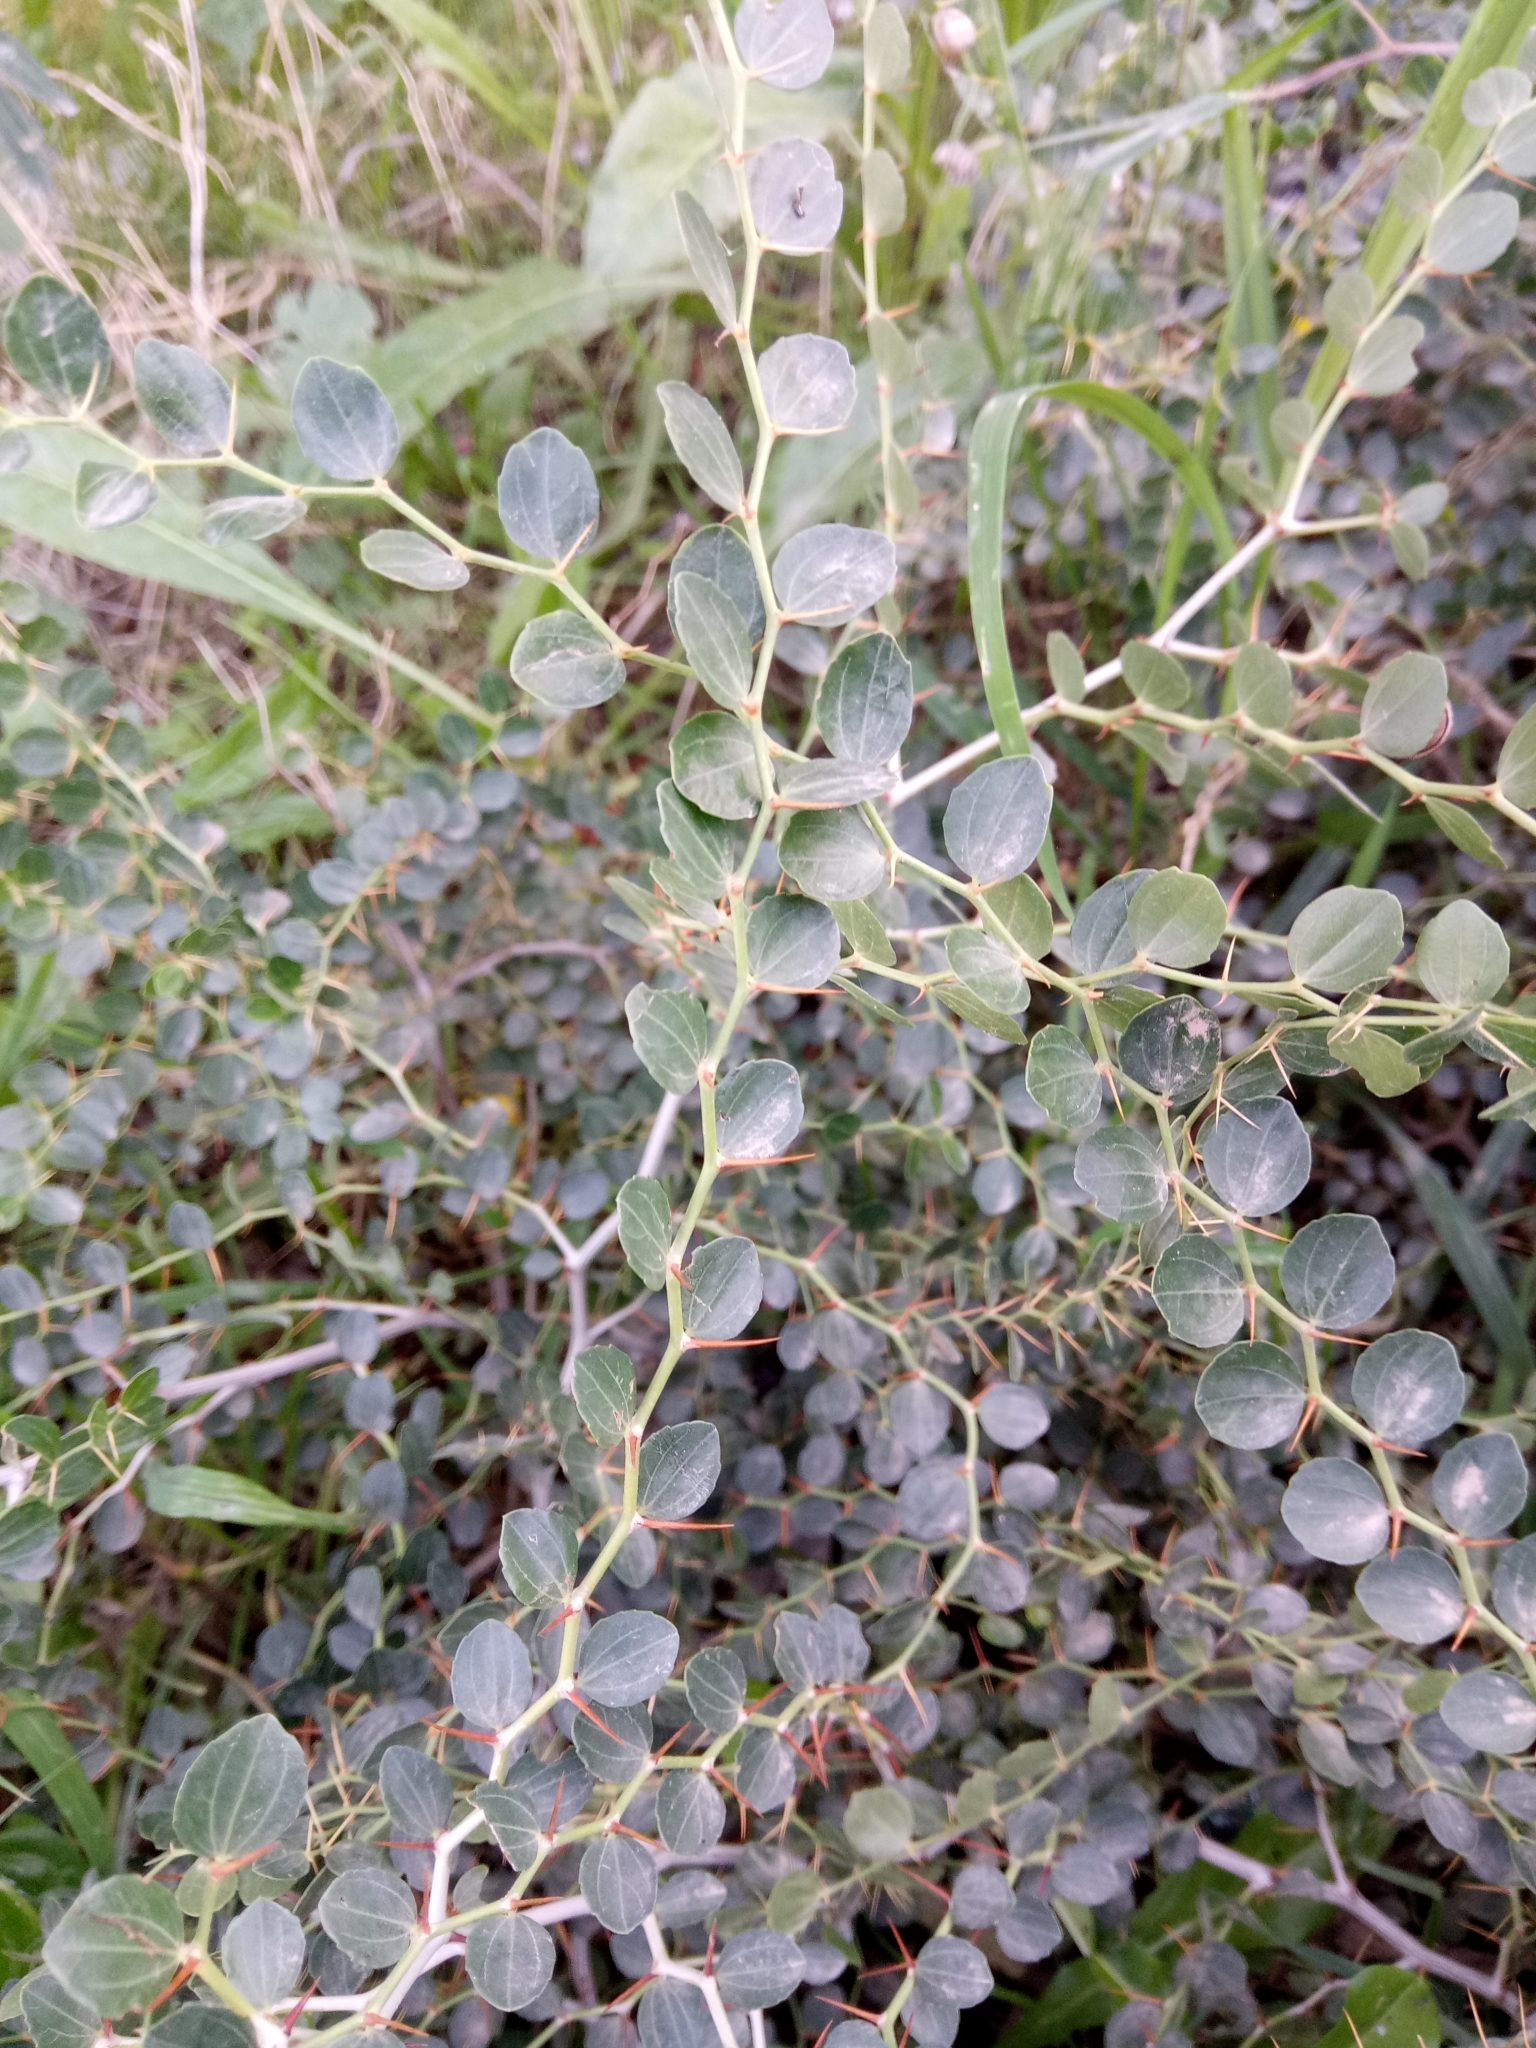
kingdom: Plantae
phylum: Tracheophyta
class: Magnoliopsida
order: Rosales
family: Rhamnaceae
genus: Ziziphus
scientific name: Ziziphus lotus
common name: Lotus
